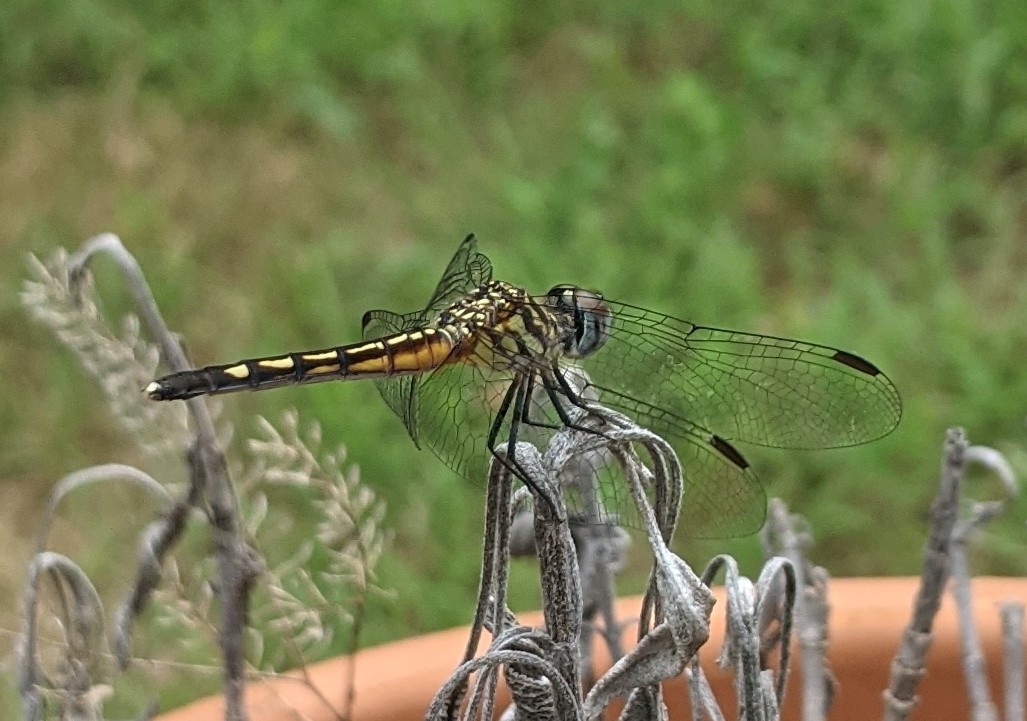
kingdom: Animalia
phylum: Arthropoda
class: Insecta
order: Odonata
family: Libellulidae
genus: Pachydiplax
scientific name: Pachydiplax longipennis
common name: Blue dasher
